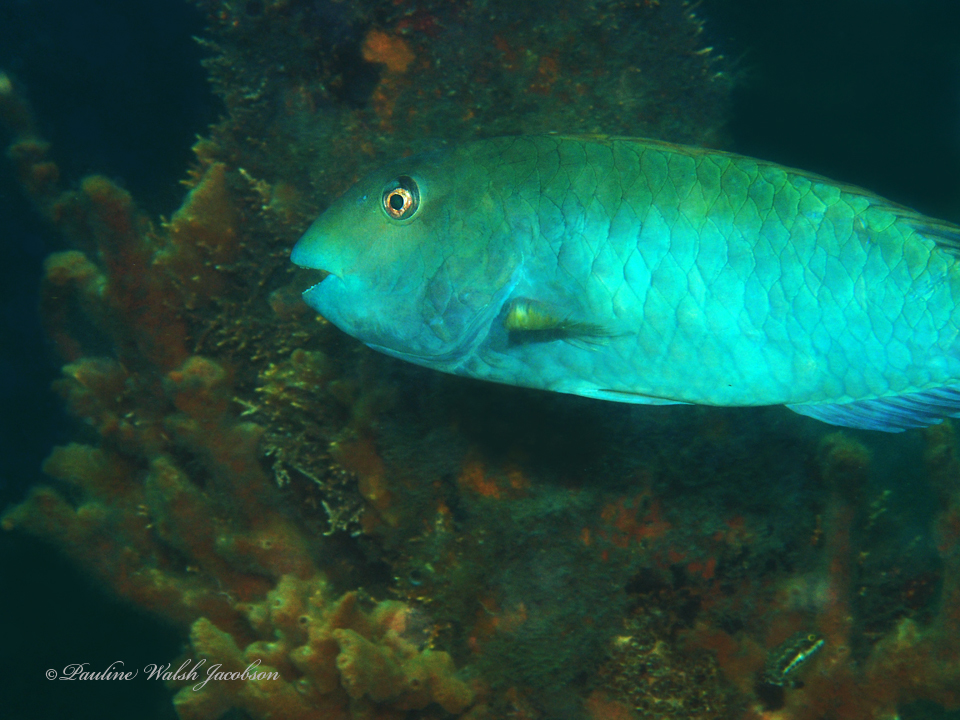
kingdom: Animalia
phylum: Chordata
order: Perciformes
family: Scaridae
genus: Sparisoma
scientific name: Sparisoma rubripinne
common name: Redfin parrotfish
